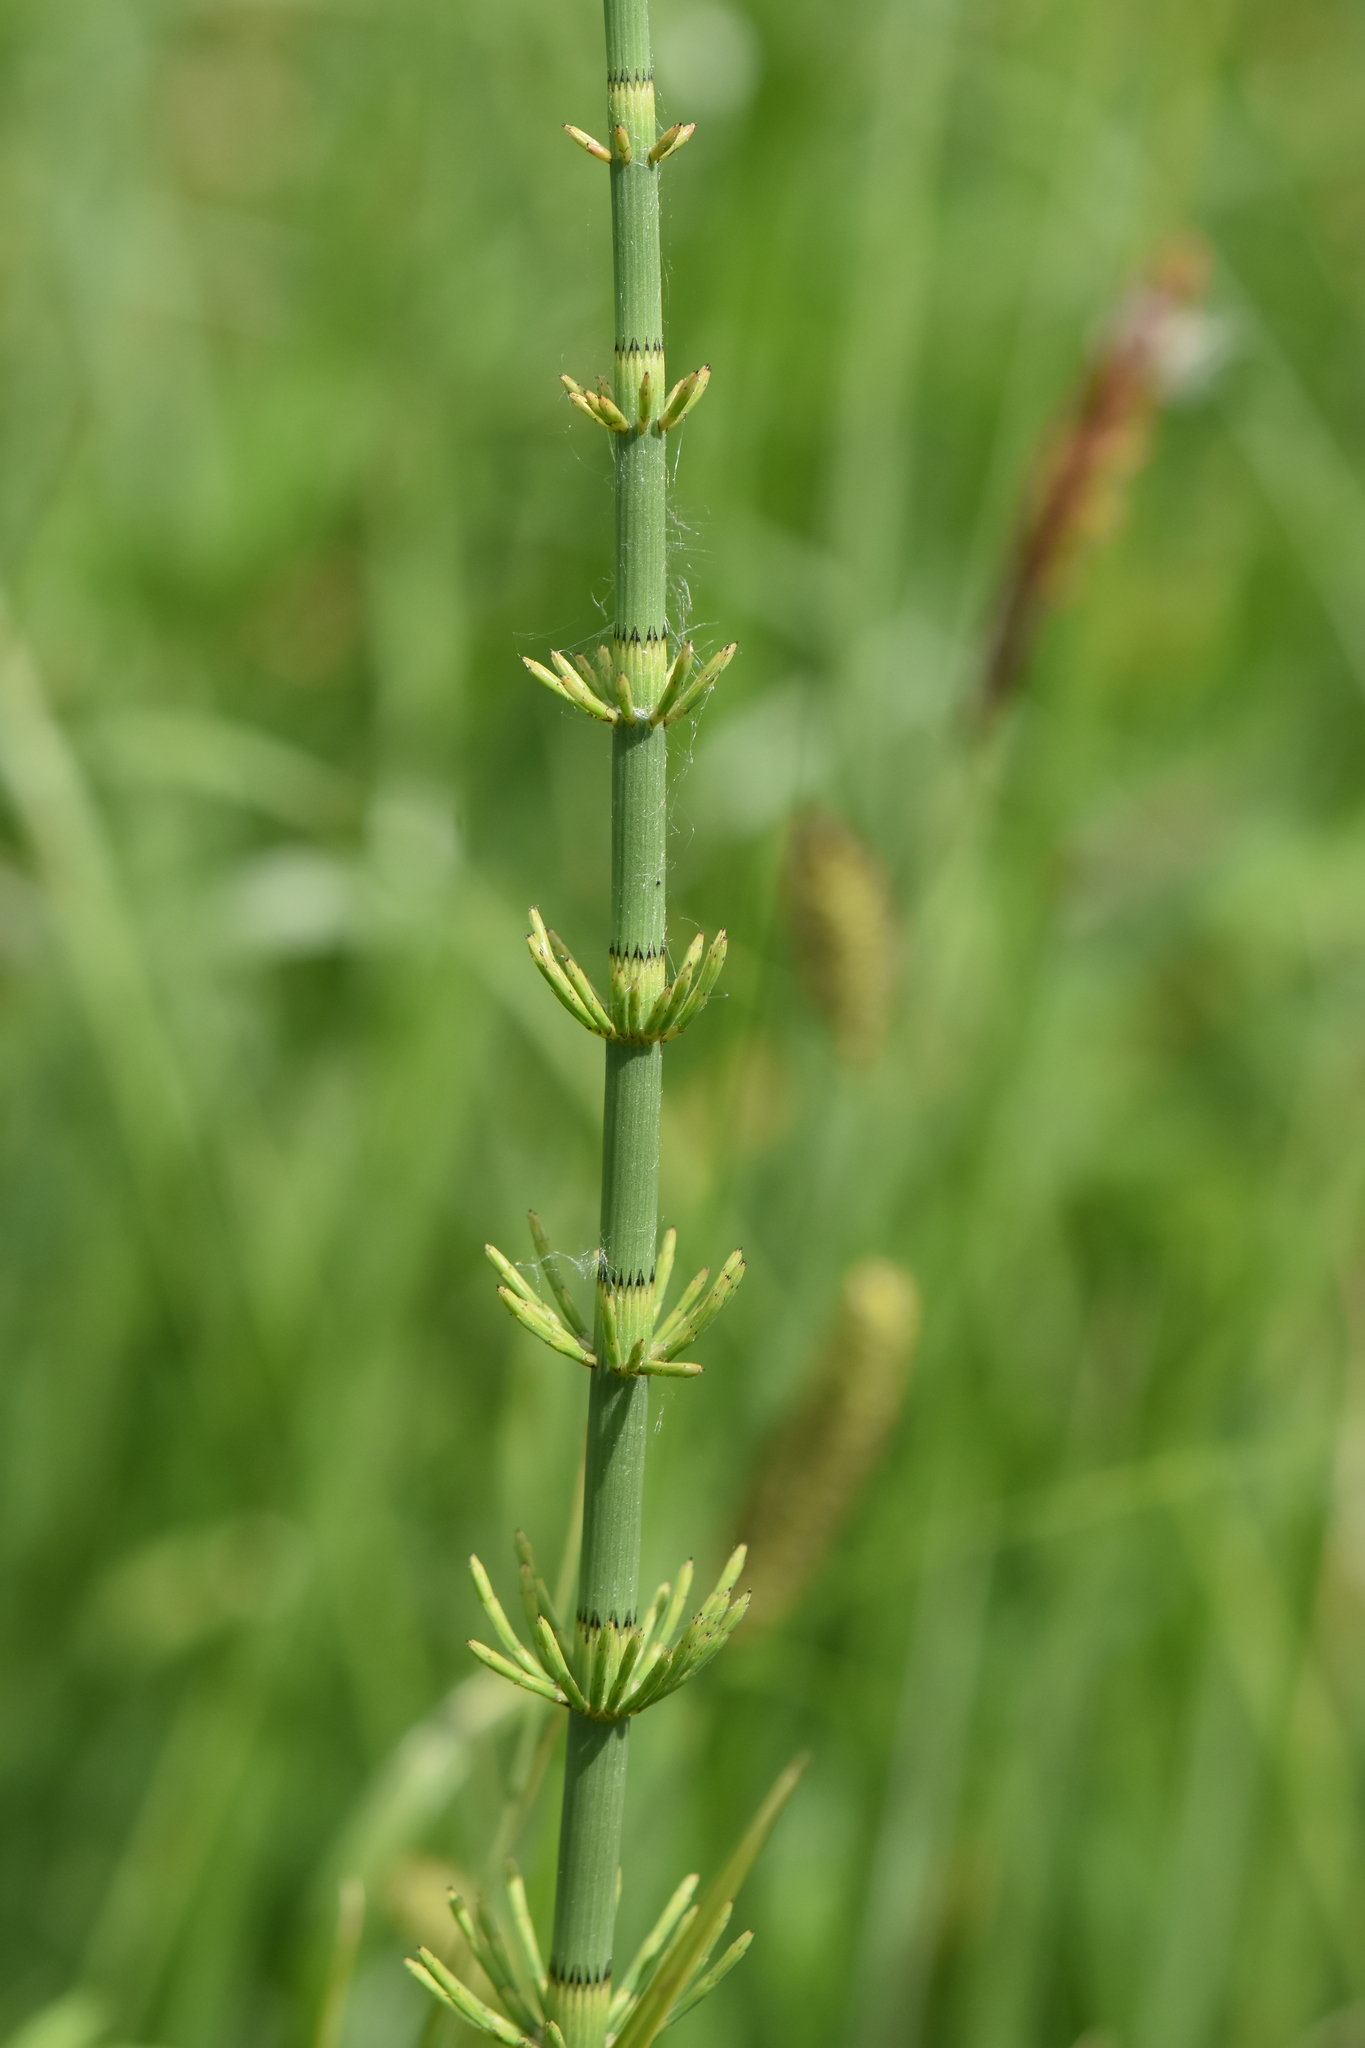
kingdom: Plantae
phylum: Tracheophyta
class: Polypodiopsida
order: Equisetales
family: Equisetaceae
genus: Equisetum
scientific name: Equisetum fluviatile
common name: Water horsetail
